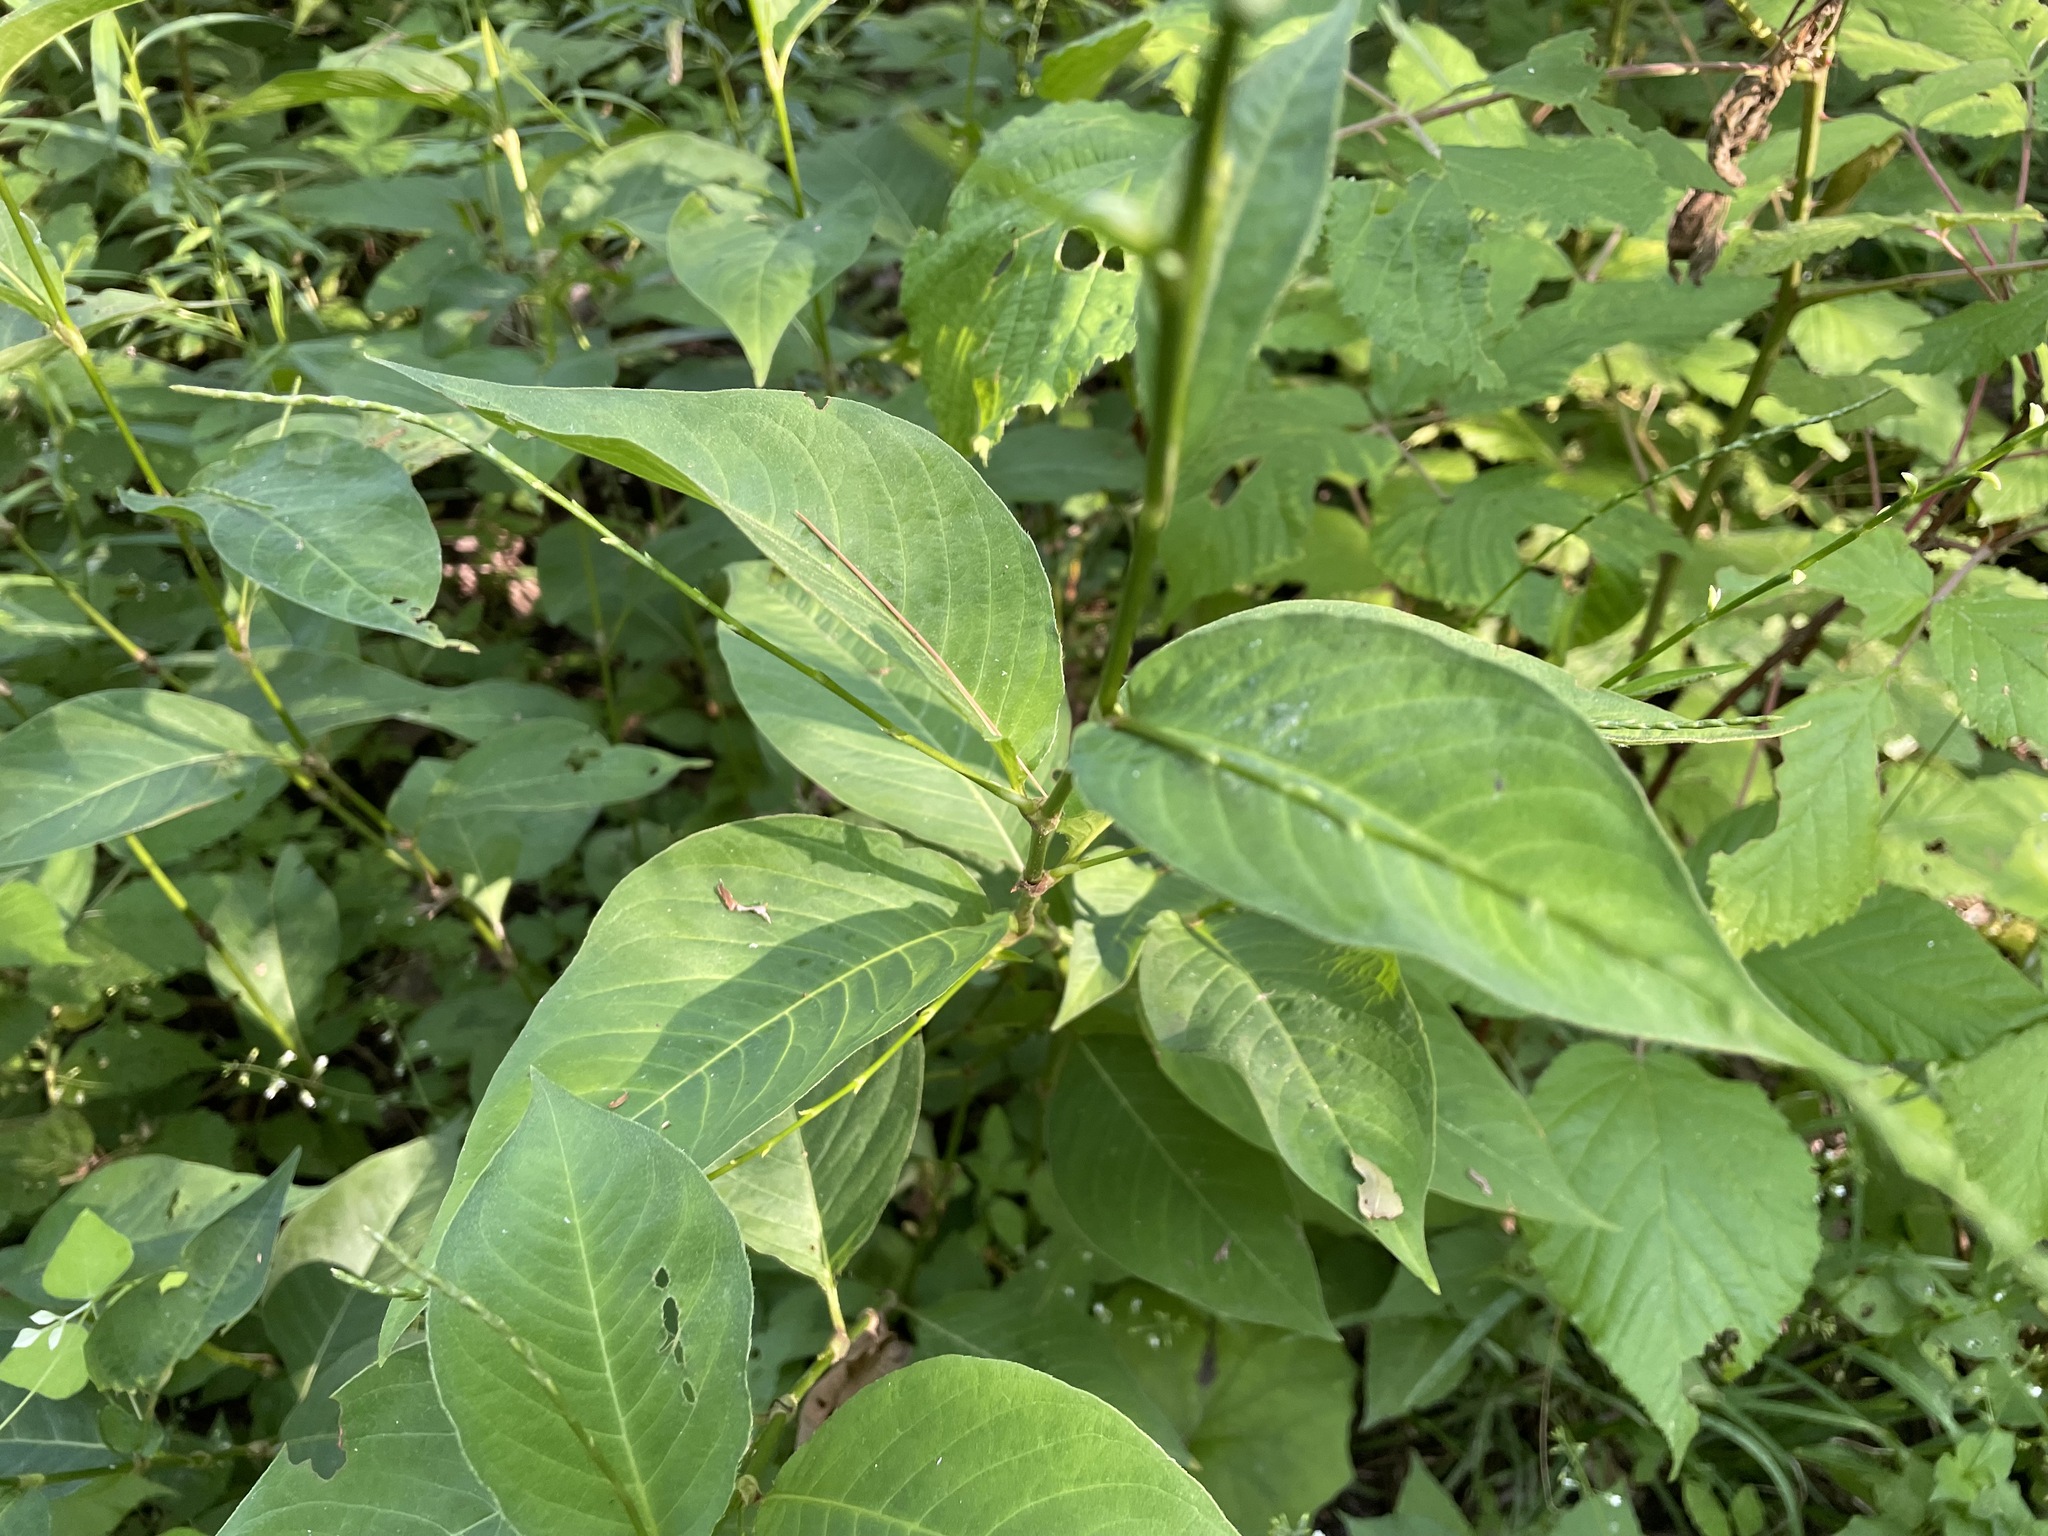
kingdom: Plantae
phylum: Tracheophyta
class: Magnoliopsida
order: Caryophyllales
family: Polygonaceae
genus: Persicaria
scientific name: Persicaria virginiana
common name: Jumpseed
